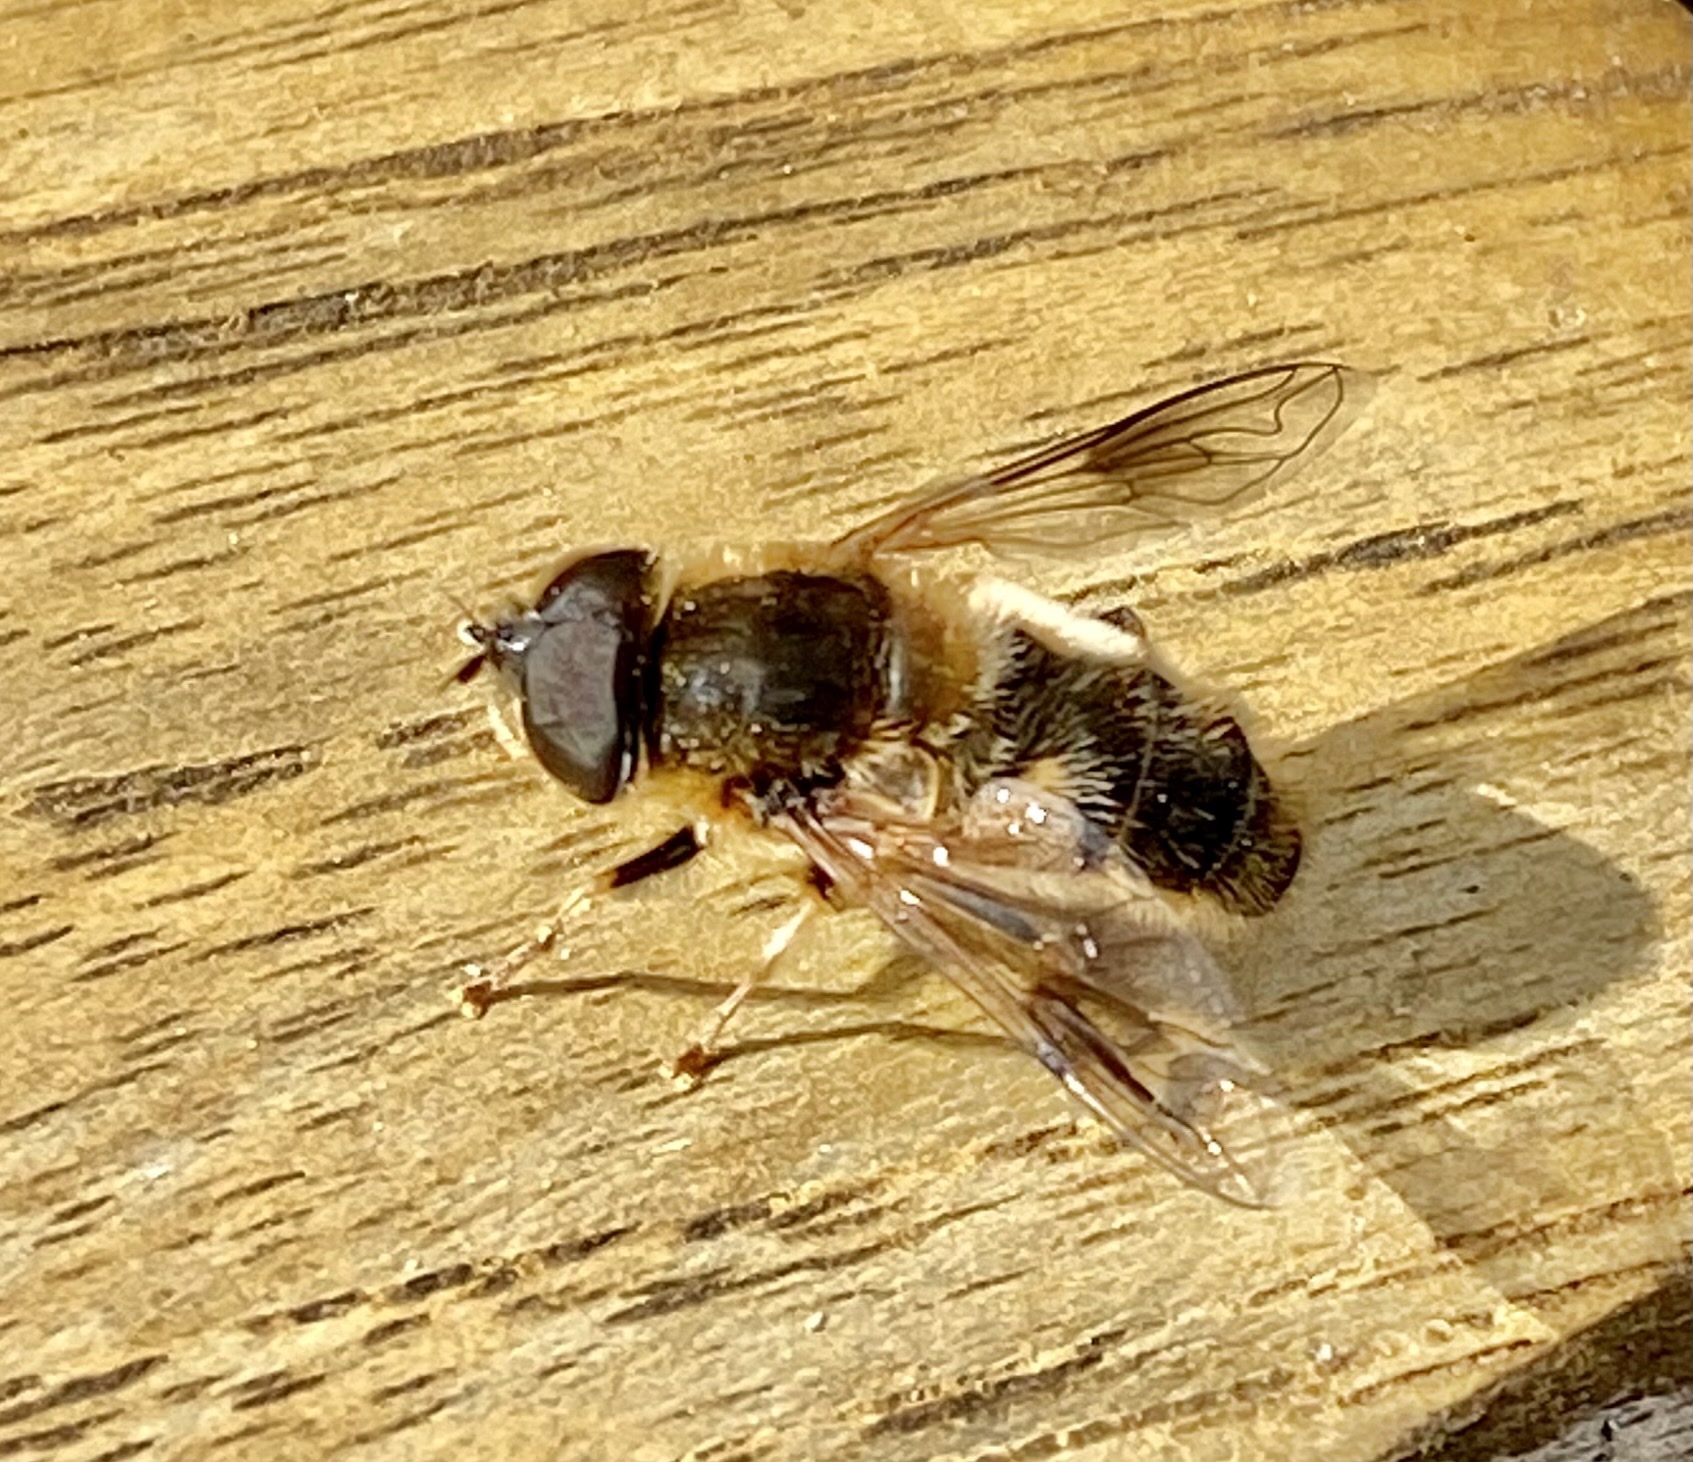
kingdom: Animalia
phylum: Arthropoda
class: Insecta
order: Diptera
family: Syrphidae
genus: Eristalis
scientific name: Eristalis pertinax
